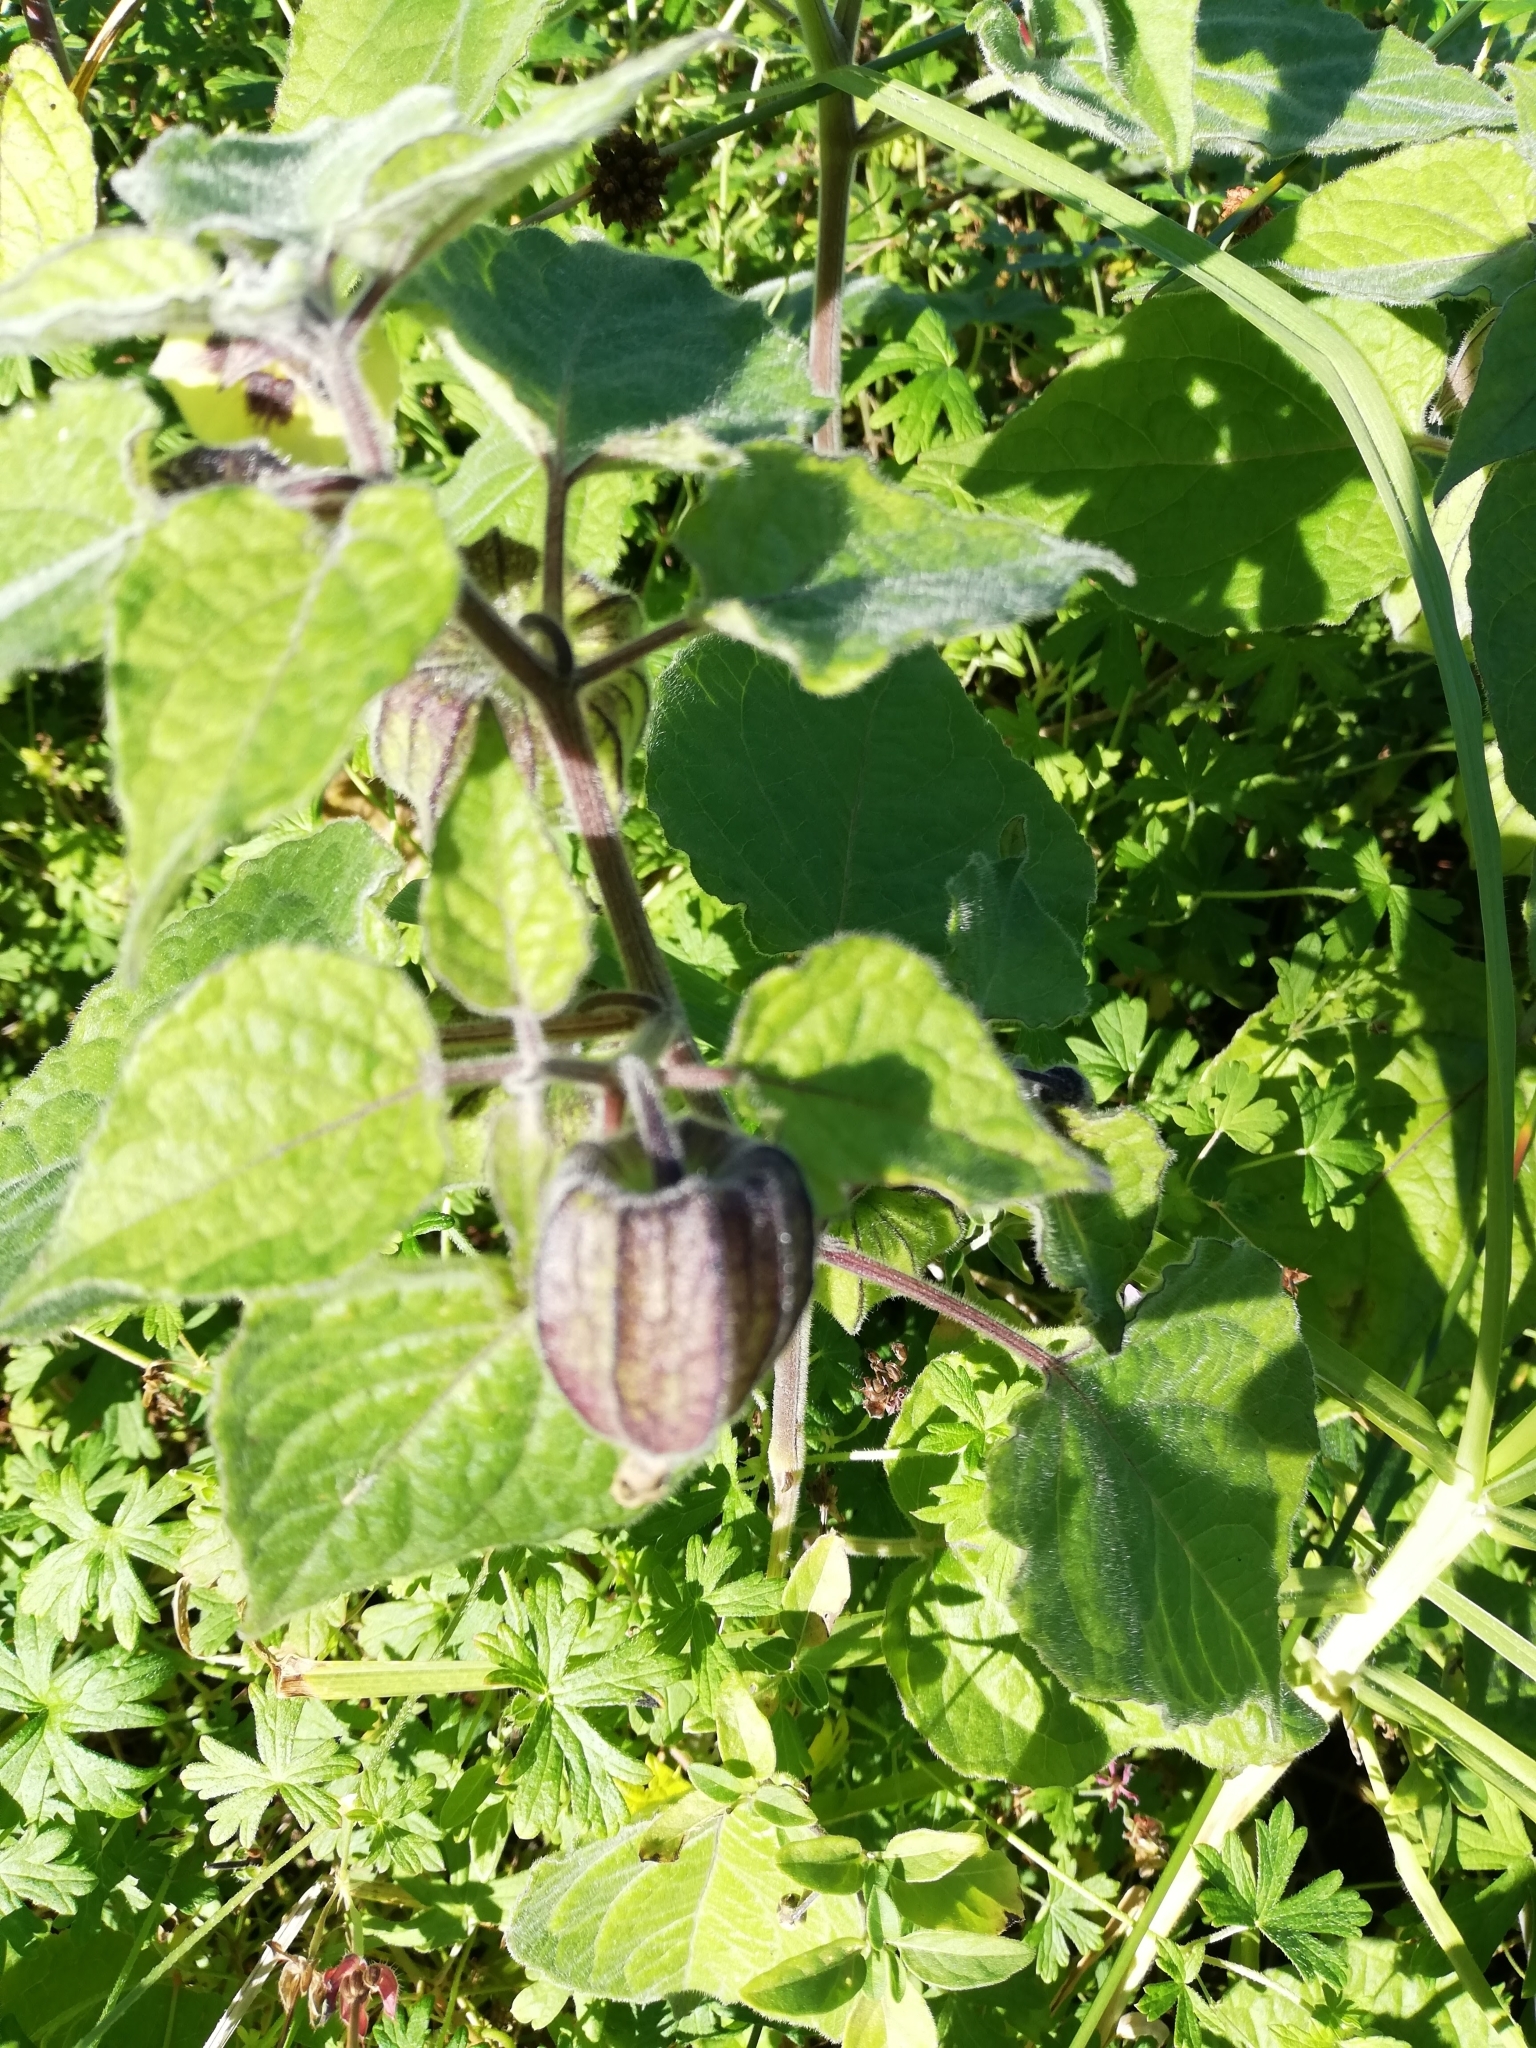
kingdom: Plantae
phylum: Tracheophyta
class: Magnoliopsida
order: Solanales
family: Solanaceae
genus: Physalis
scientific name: Physalis peruviana
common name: Cape-gooseberry
